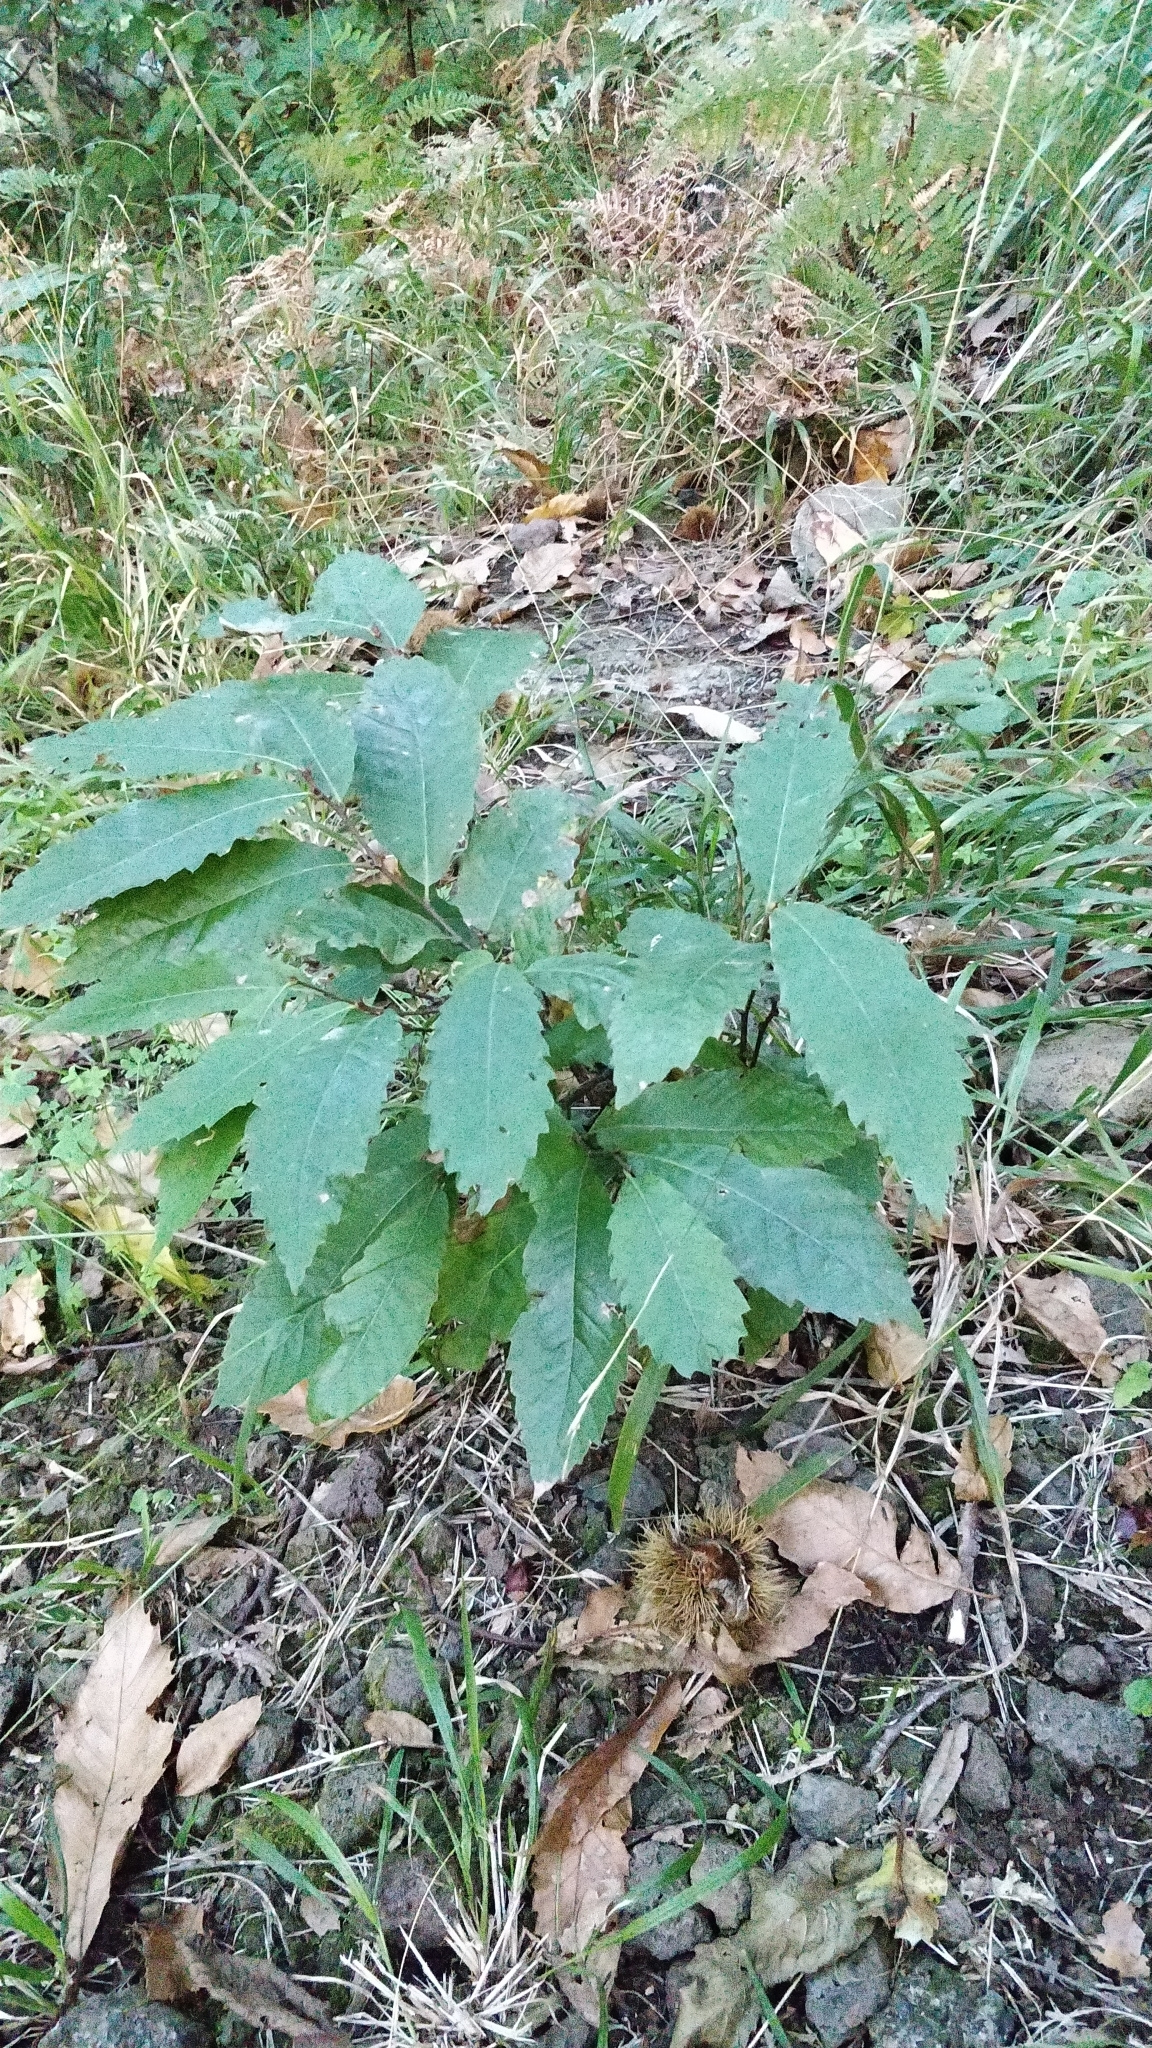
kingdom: Plantae
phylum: Tracheophyta
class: Magnoliopsida
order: Fagales
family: Fagaceae
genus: Castanea
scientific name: Castanea sativa
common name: Sweet chestnut
